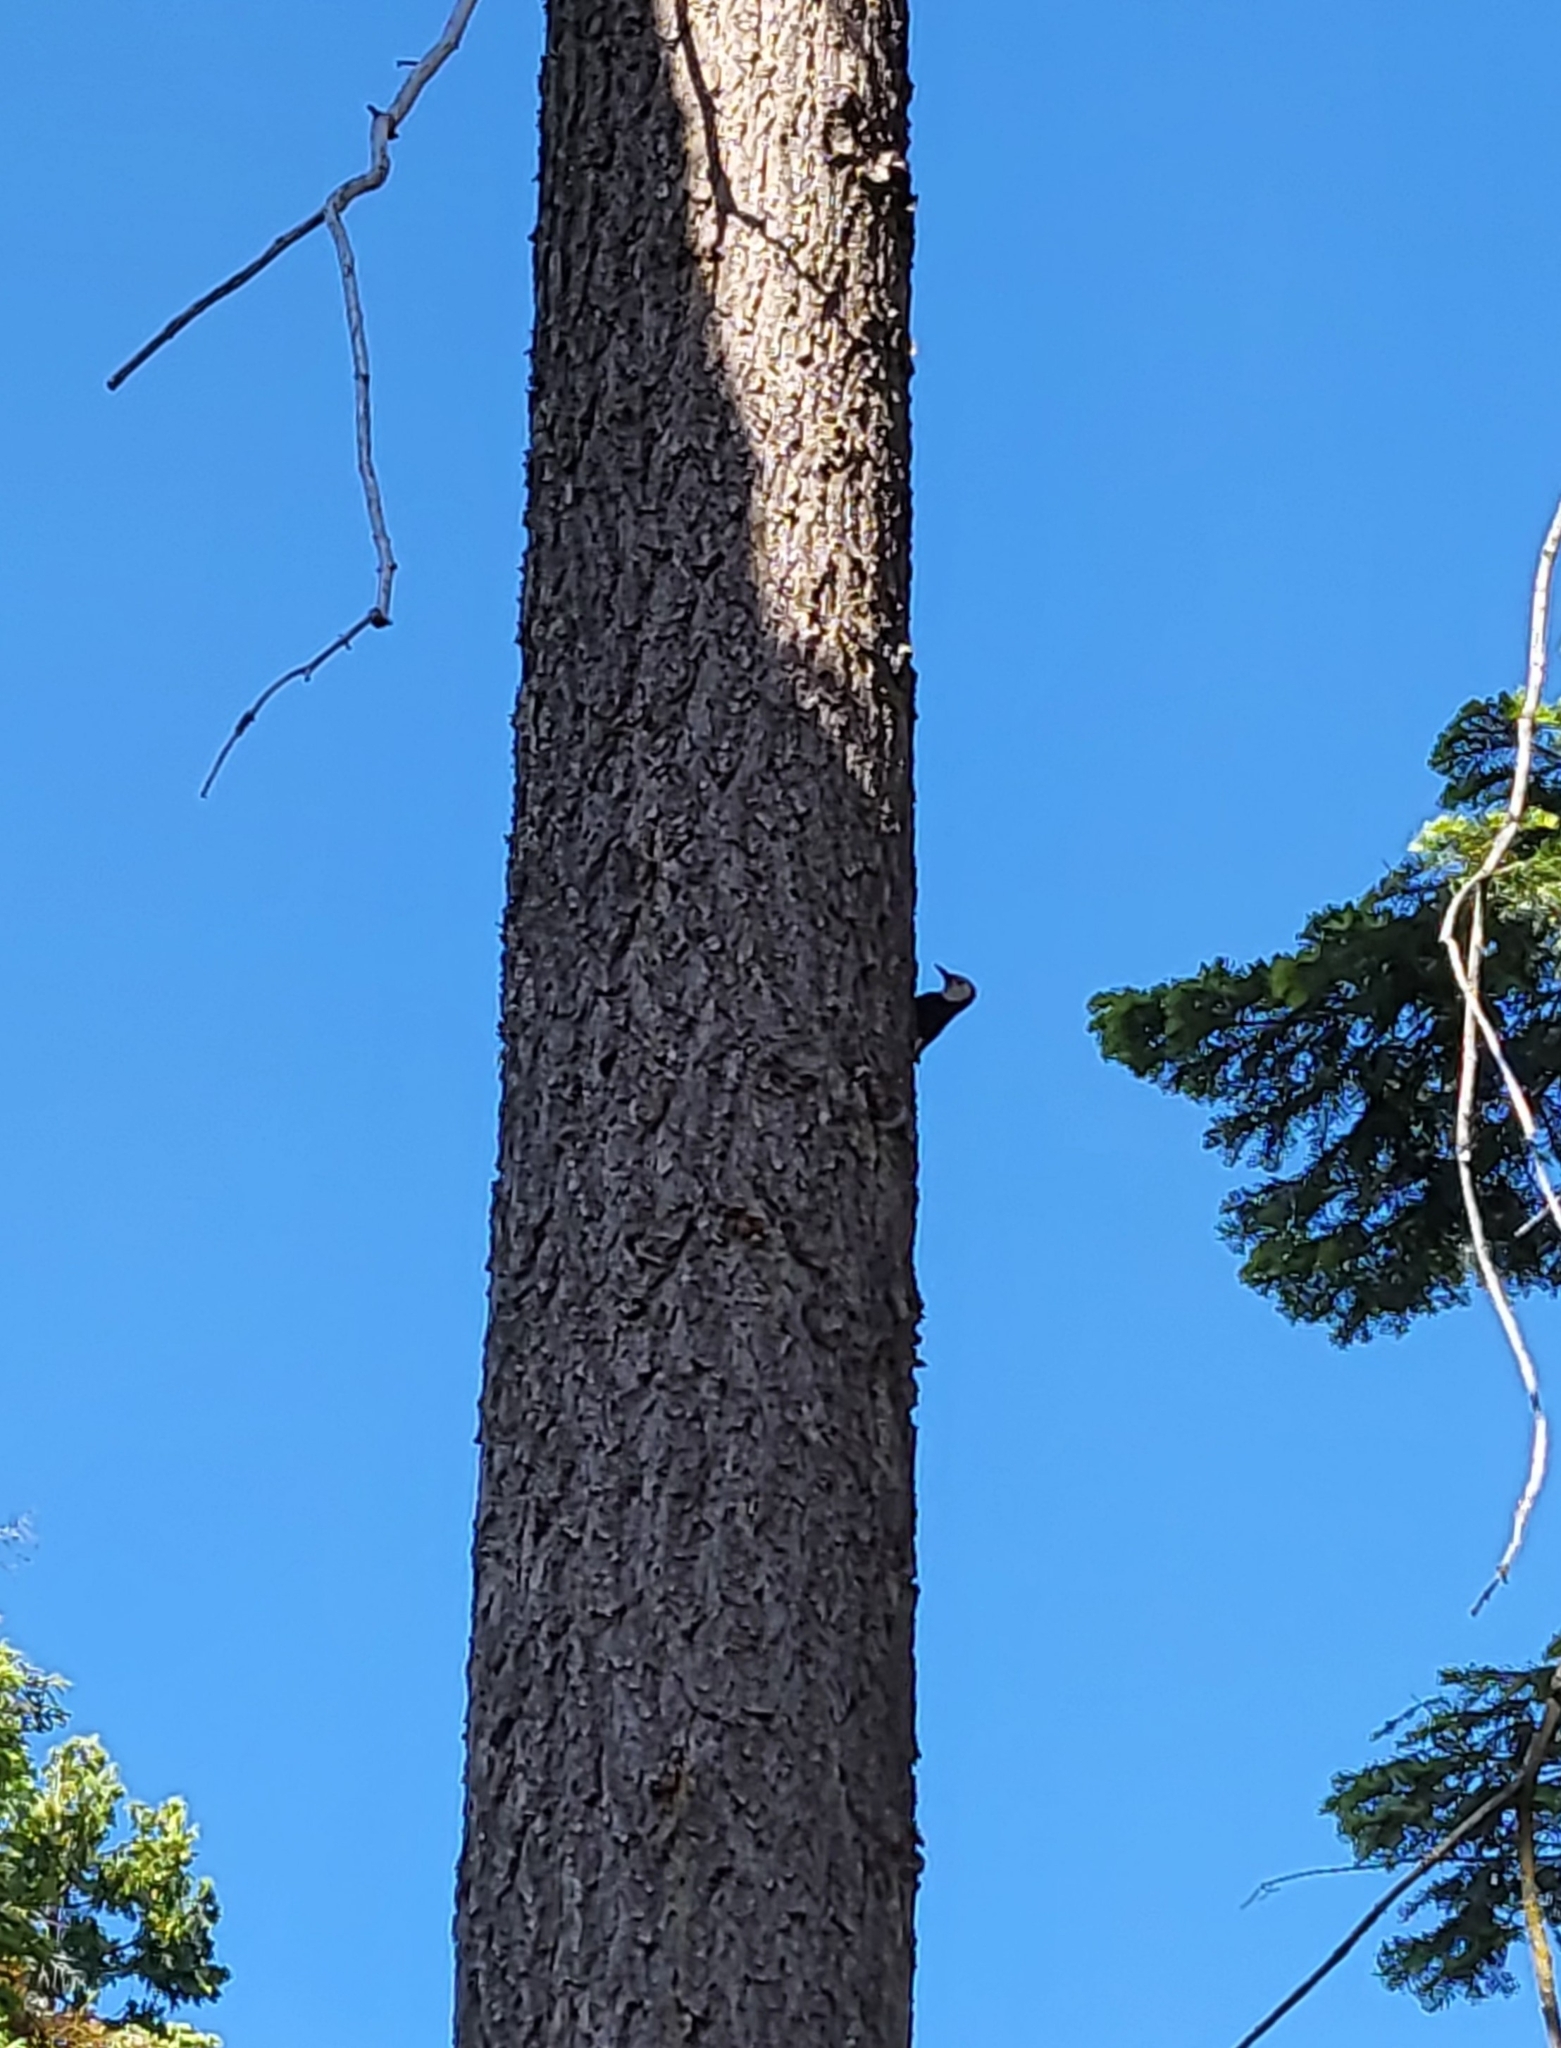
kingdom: Animalia
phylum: Chordata
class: Aves
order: Piciformes
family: Picidae
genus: Leuconotopicus
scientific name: Leuconotopicus albolarvatus
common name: White-headed woodpecker
